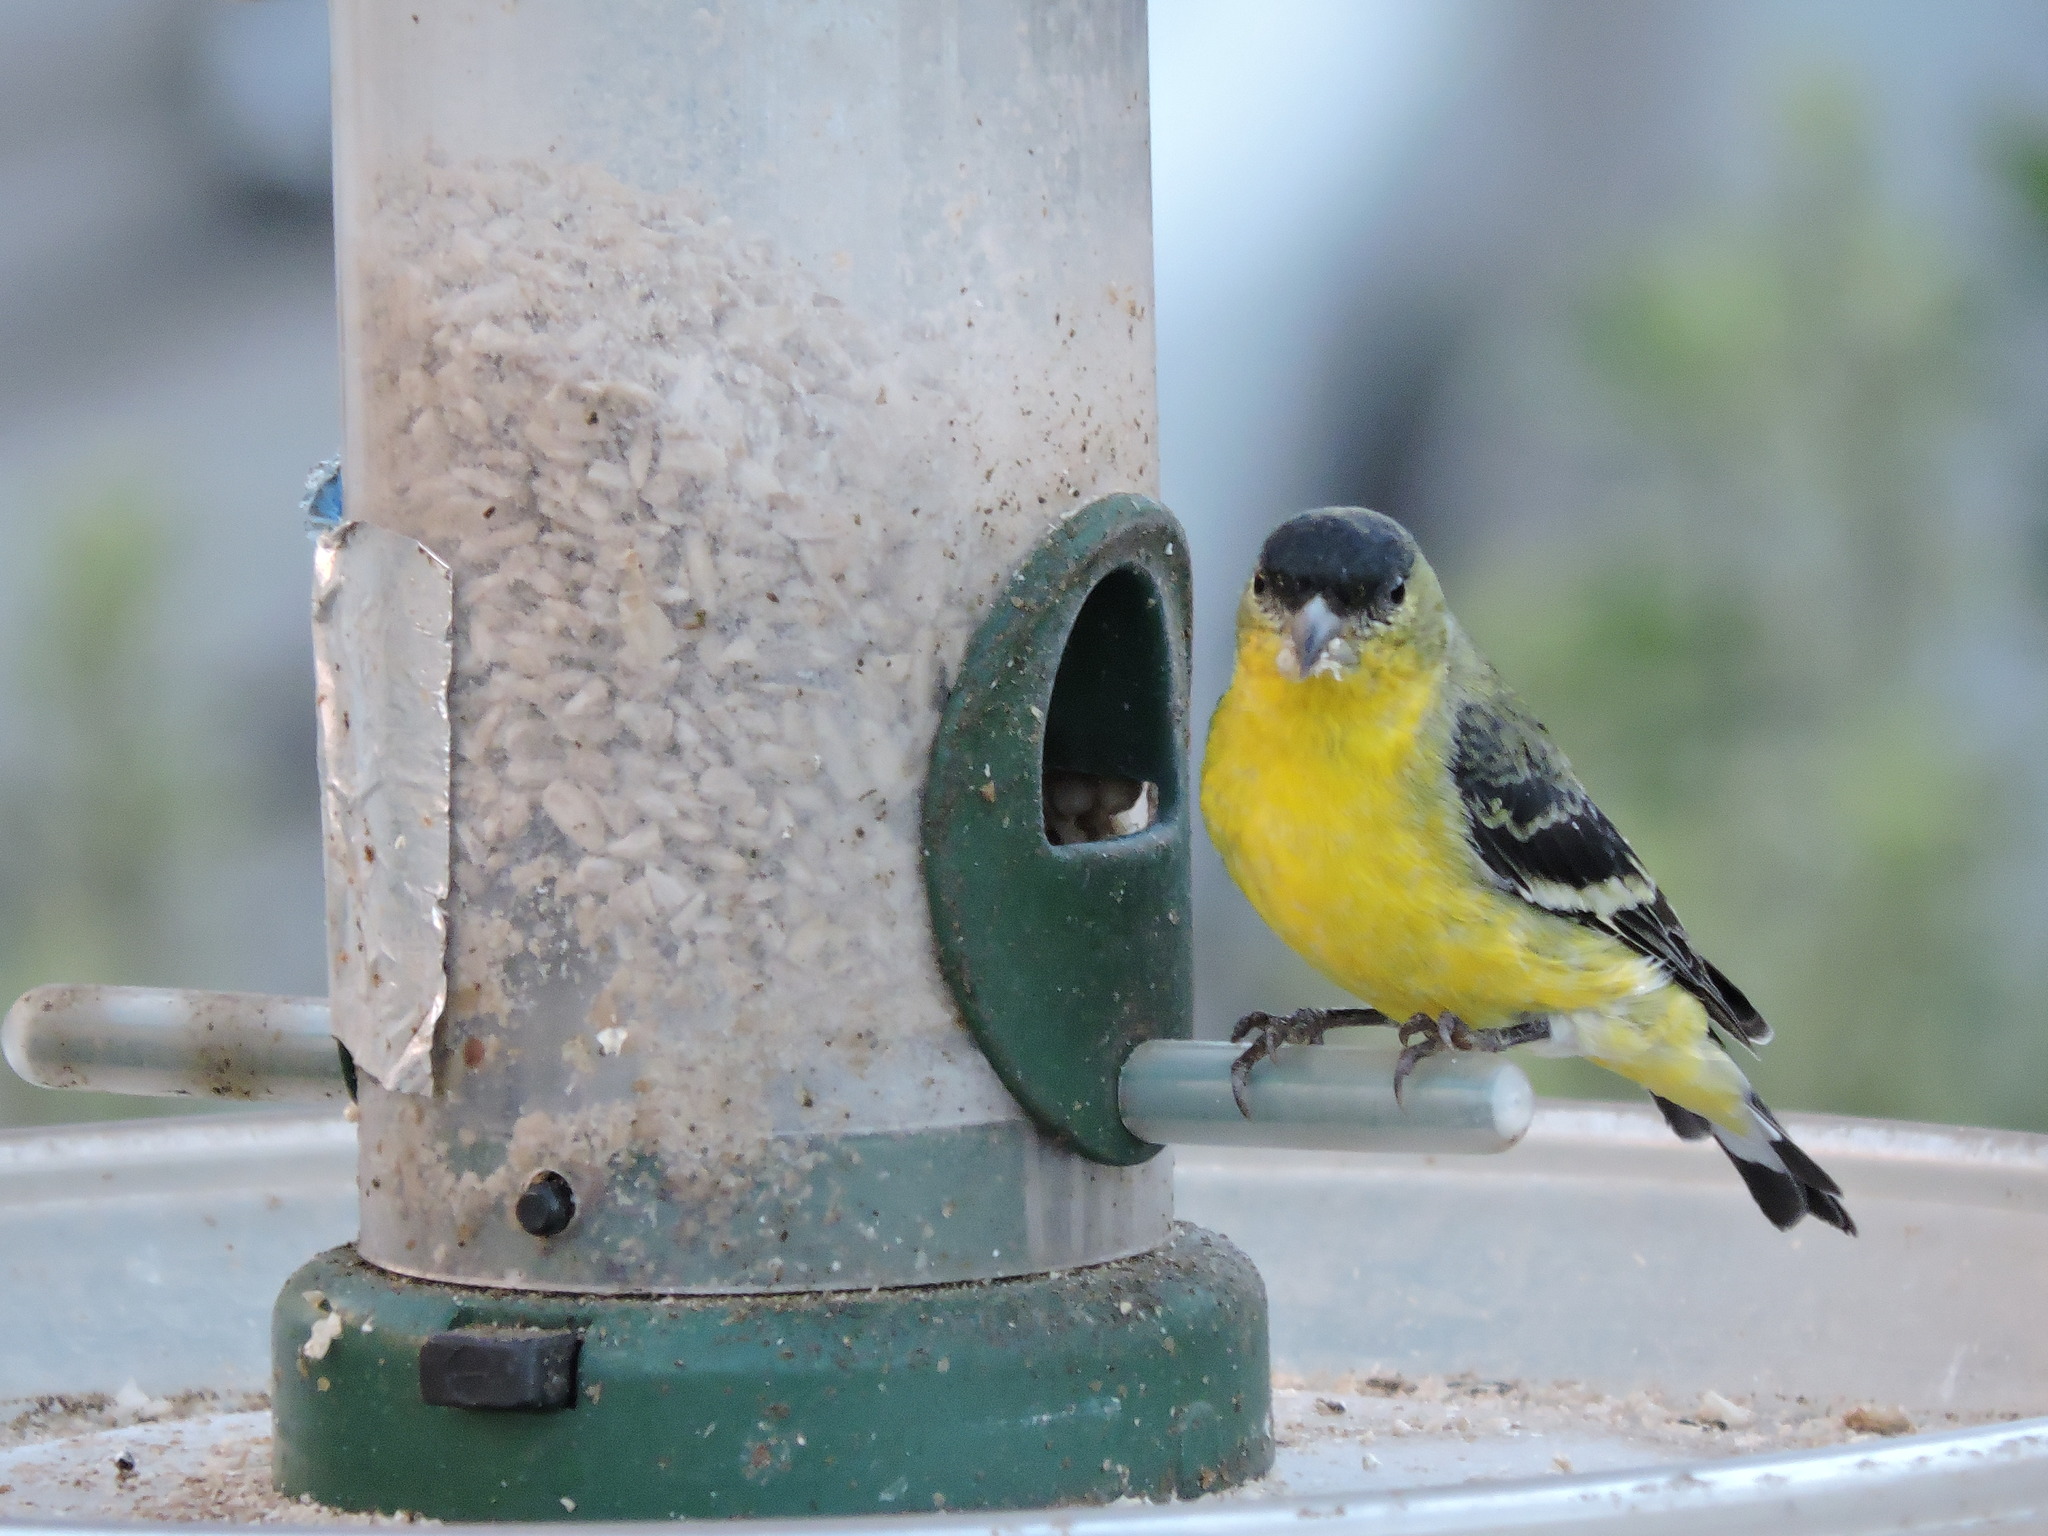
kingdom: Animalia
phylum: Chordata
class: Aves
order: Passeriformes
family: Fringillidae
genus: Spinus
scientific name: Spinus psaltria
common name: Lesser goldfinch
